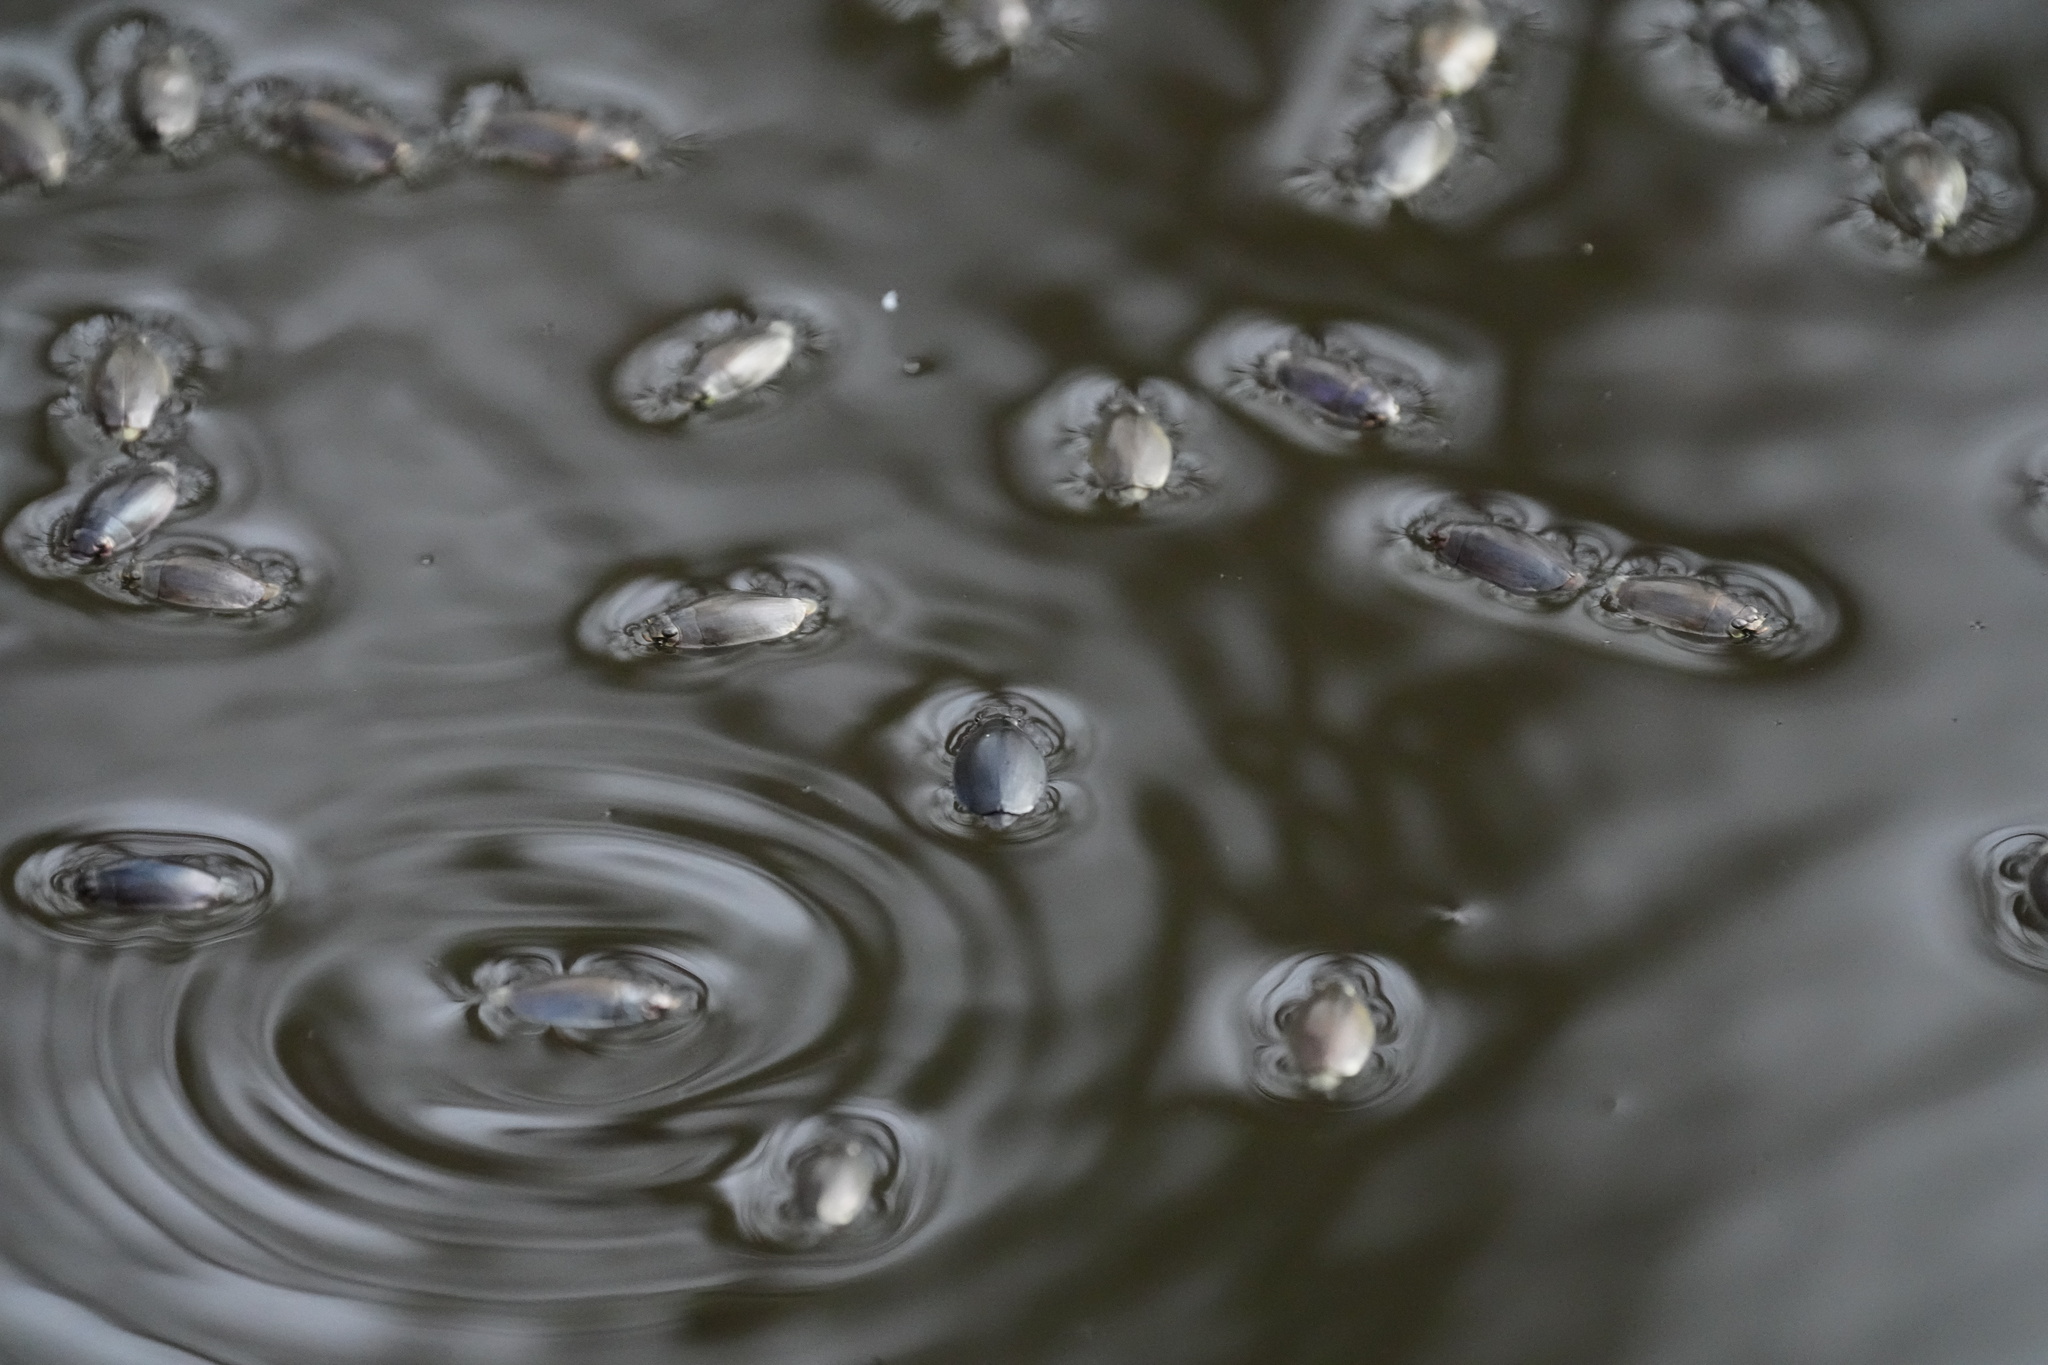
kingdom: Animalia
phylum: Arthropoda
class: Insecta
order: Coleoptera
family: Gyrinidae
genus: Dineutus
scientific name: Dineutus
